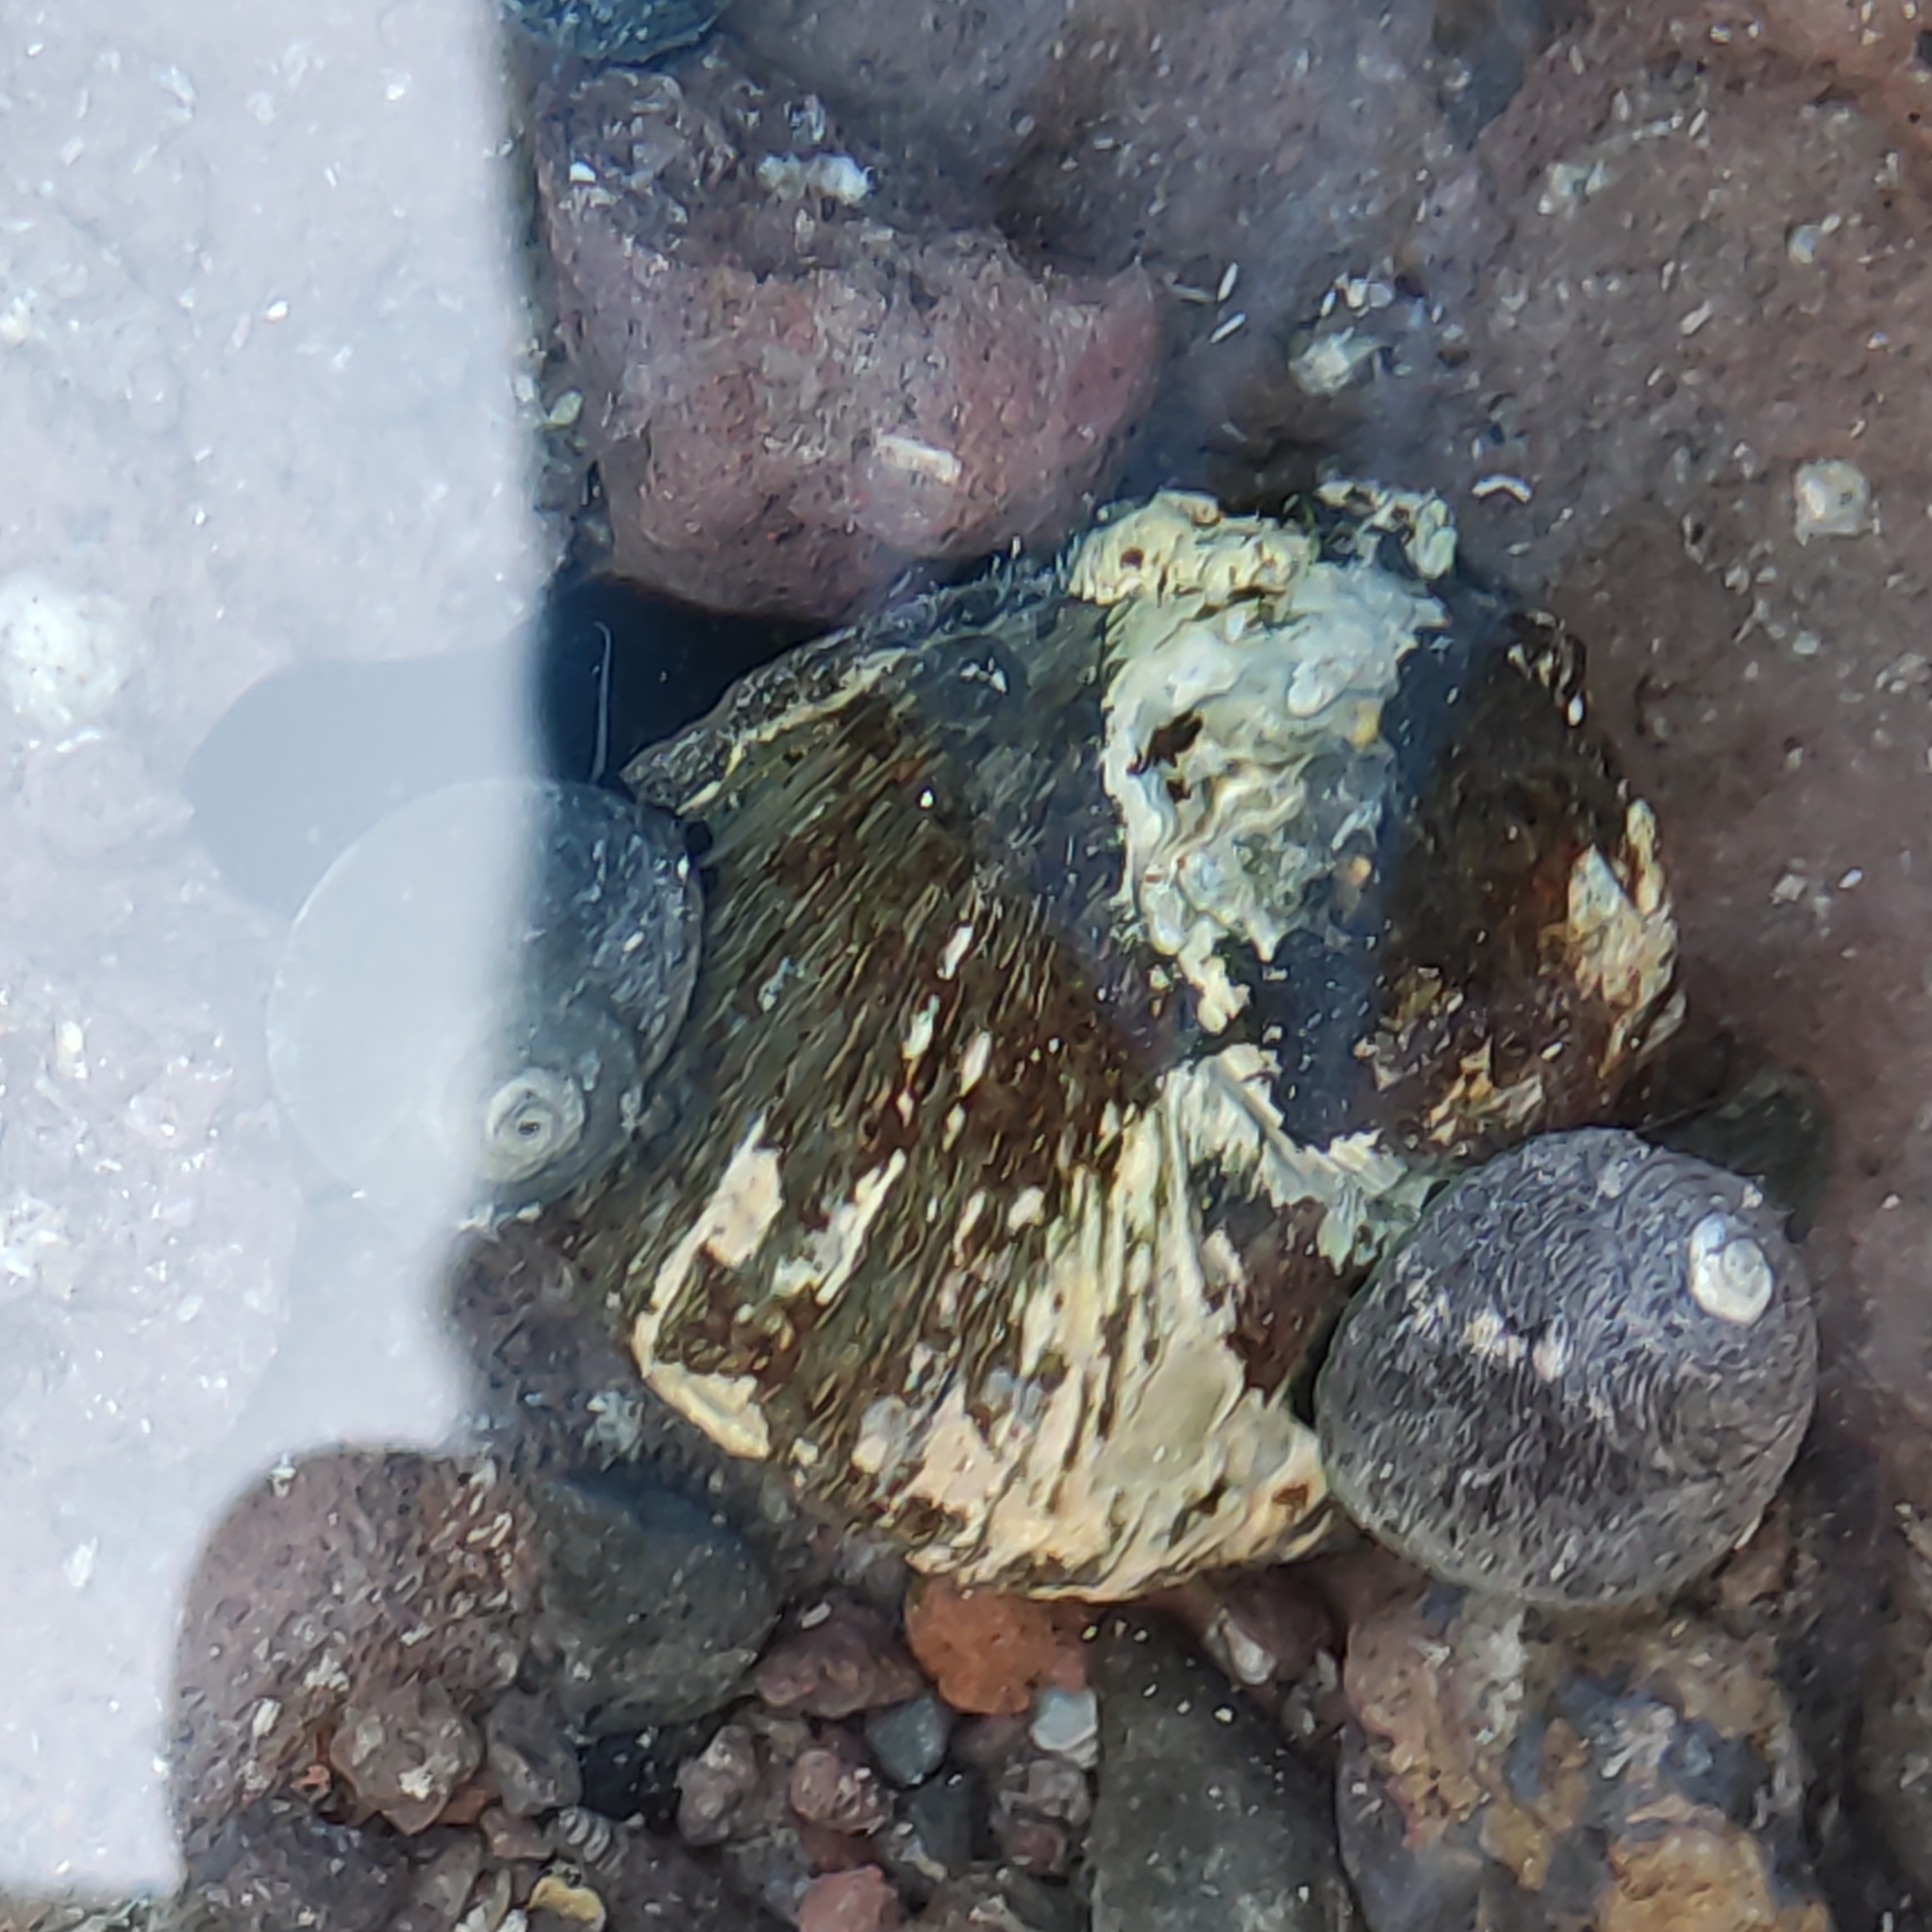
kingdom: Animalia
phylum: Mollusca
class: Gastropoda
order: Trochida
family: Turbinidae
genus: Lunella
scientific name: Lunella smaragda
